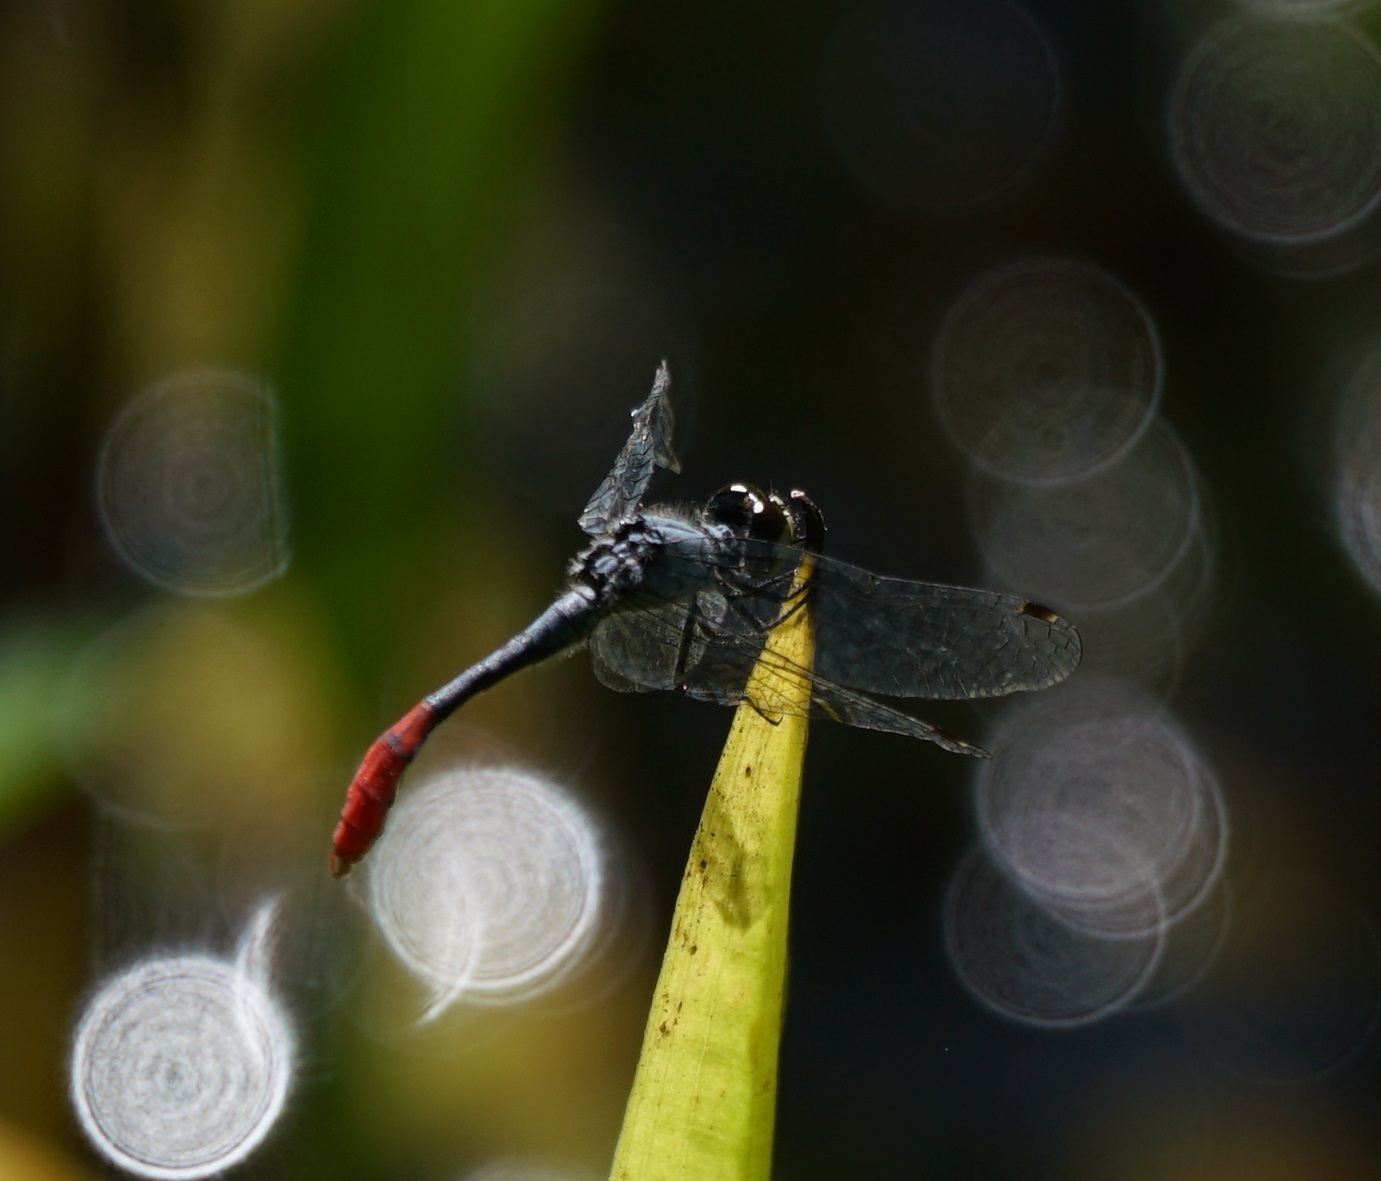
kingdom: Animalia
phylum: Arthropoda
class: Insecta
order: Odonata
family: Libellulidae
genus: Nannophya
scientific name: Nannophya australis
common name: Australian pygmyfly
